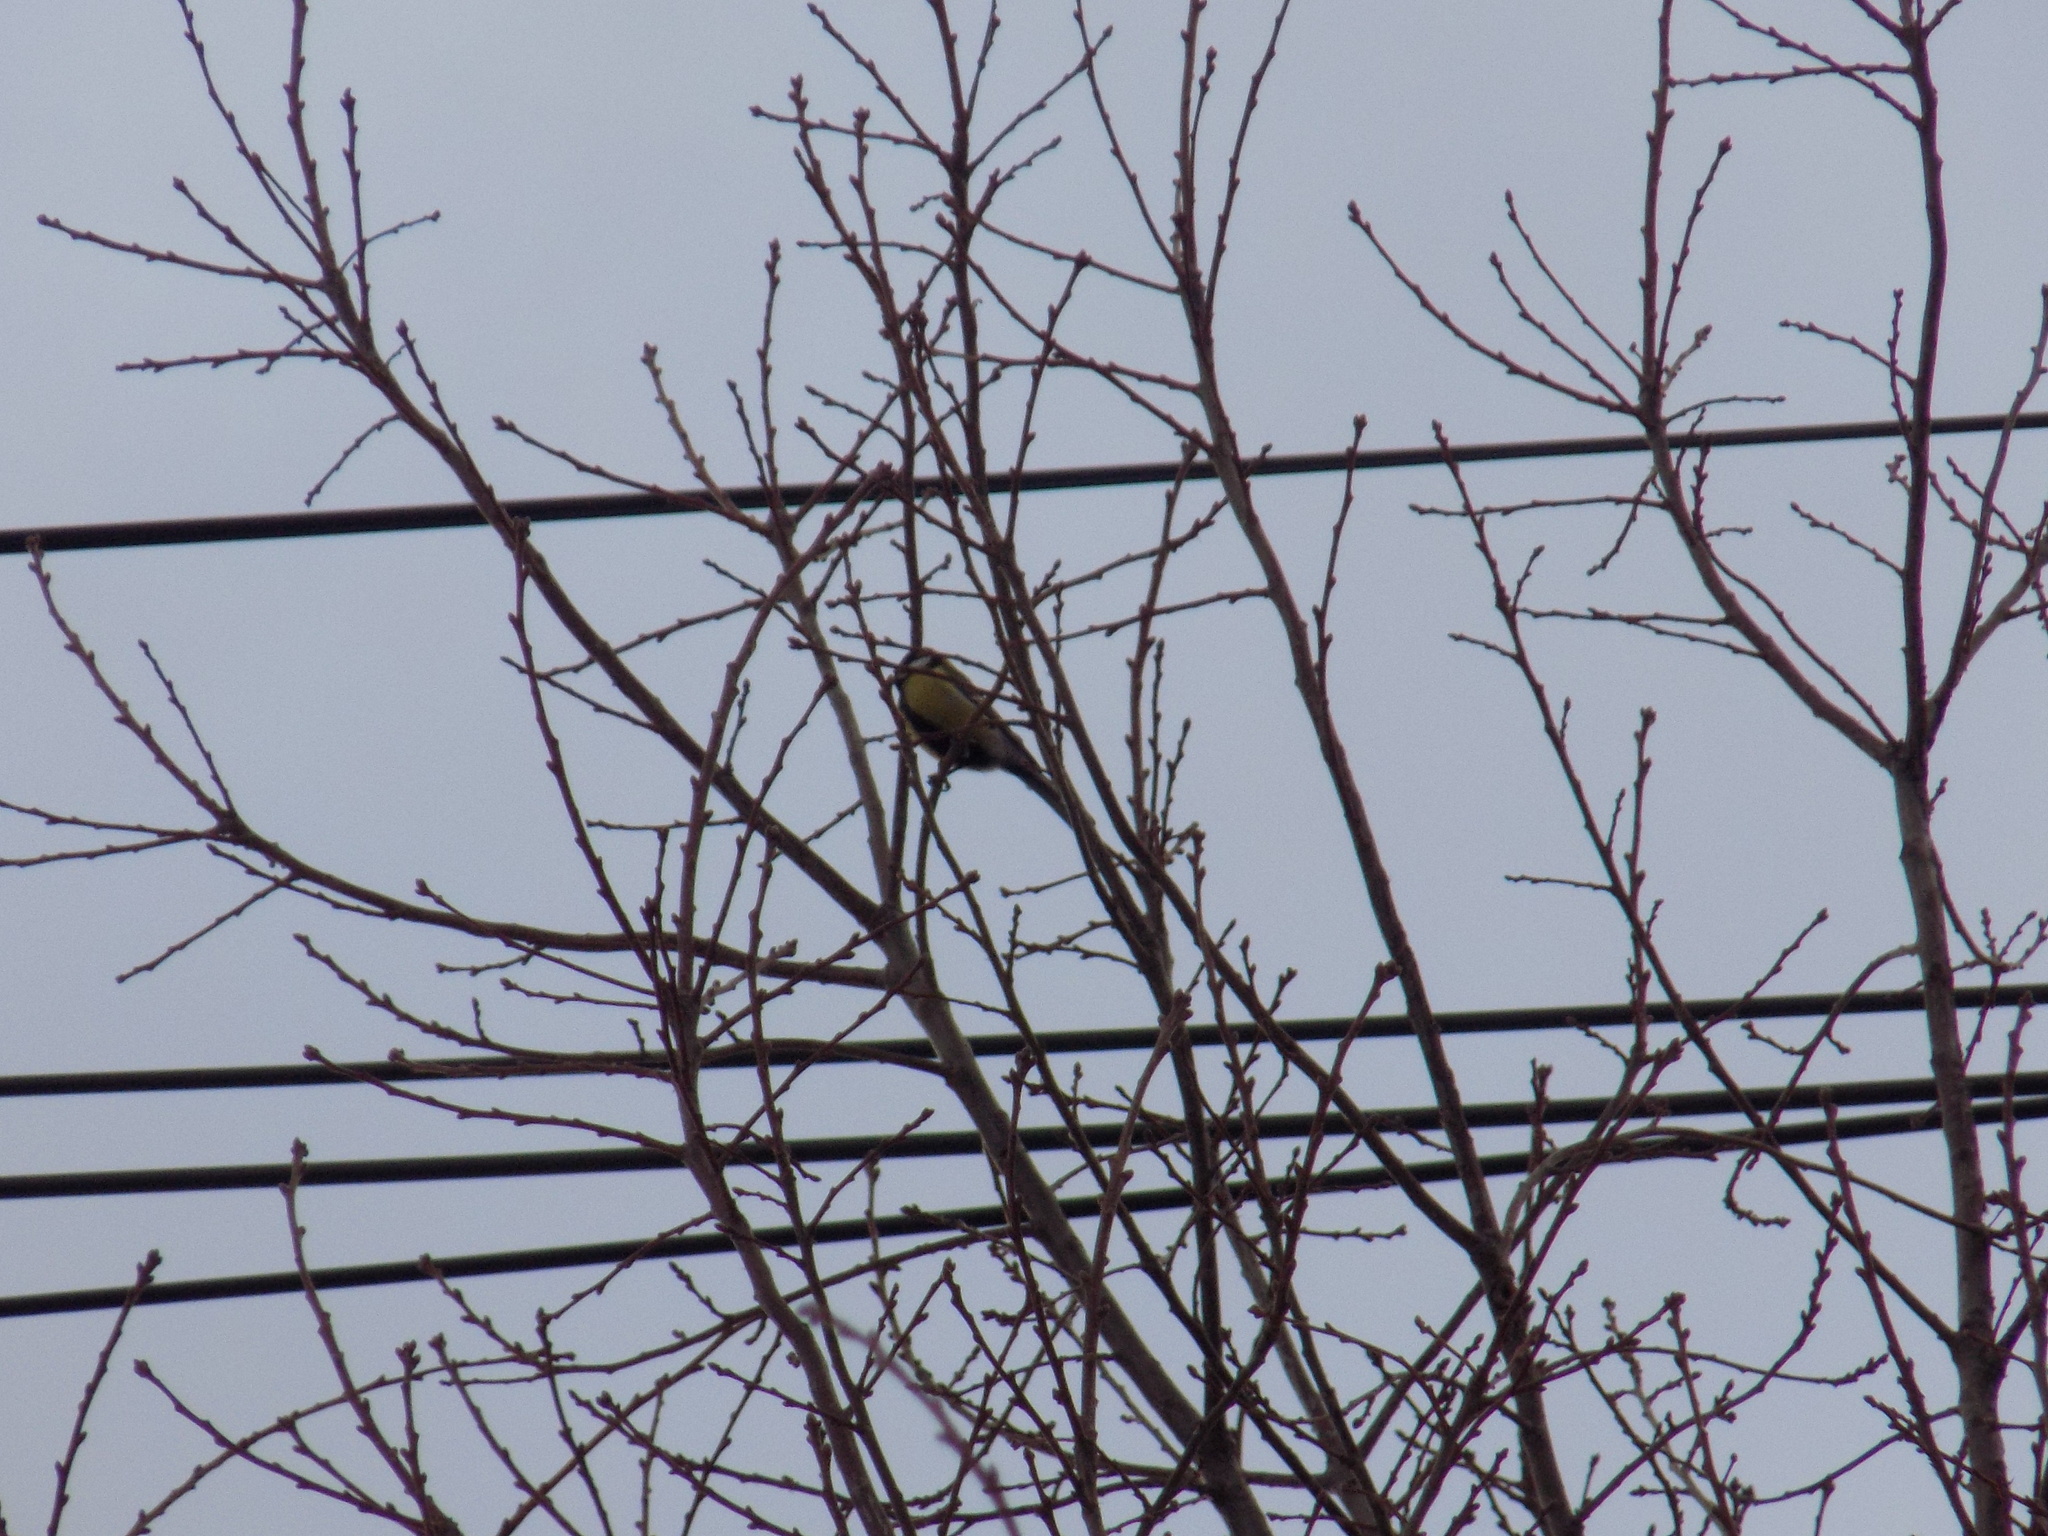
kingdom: Animalia
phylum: Chordata
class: Aves
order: Passeriformes
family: Paridae
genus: Parus
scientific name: Parus major
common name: Great tit
